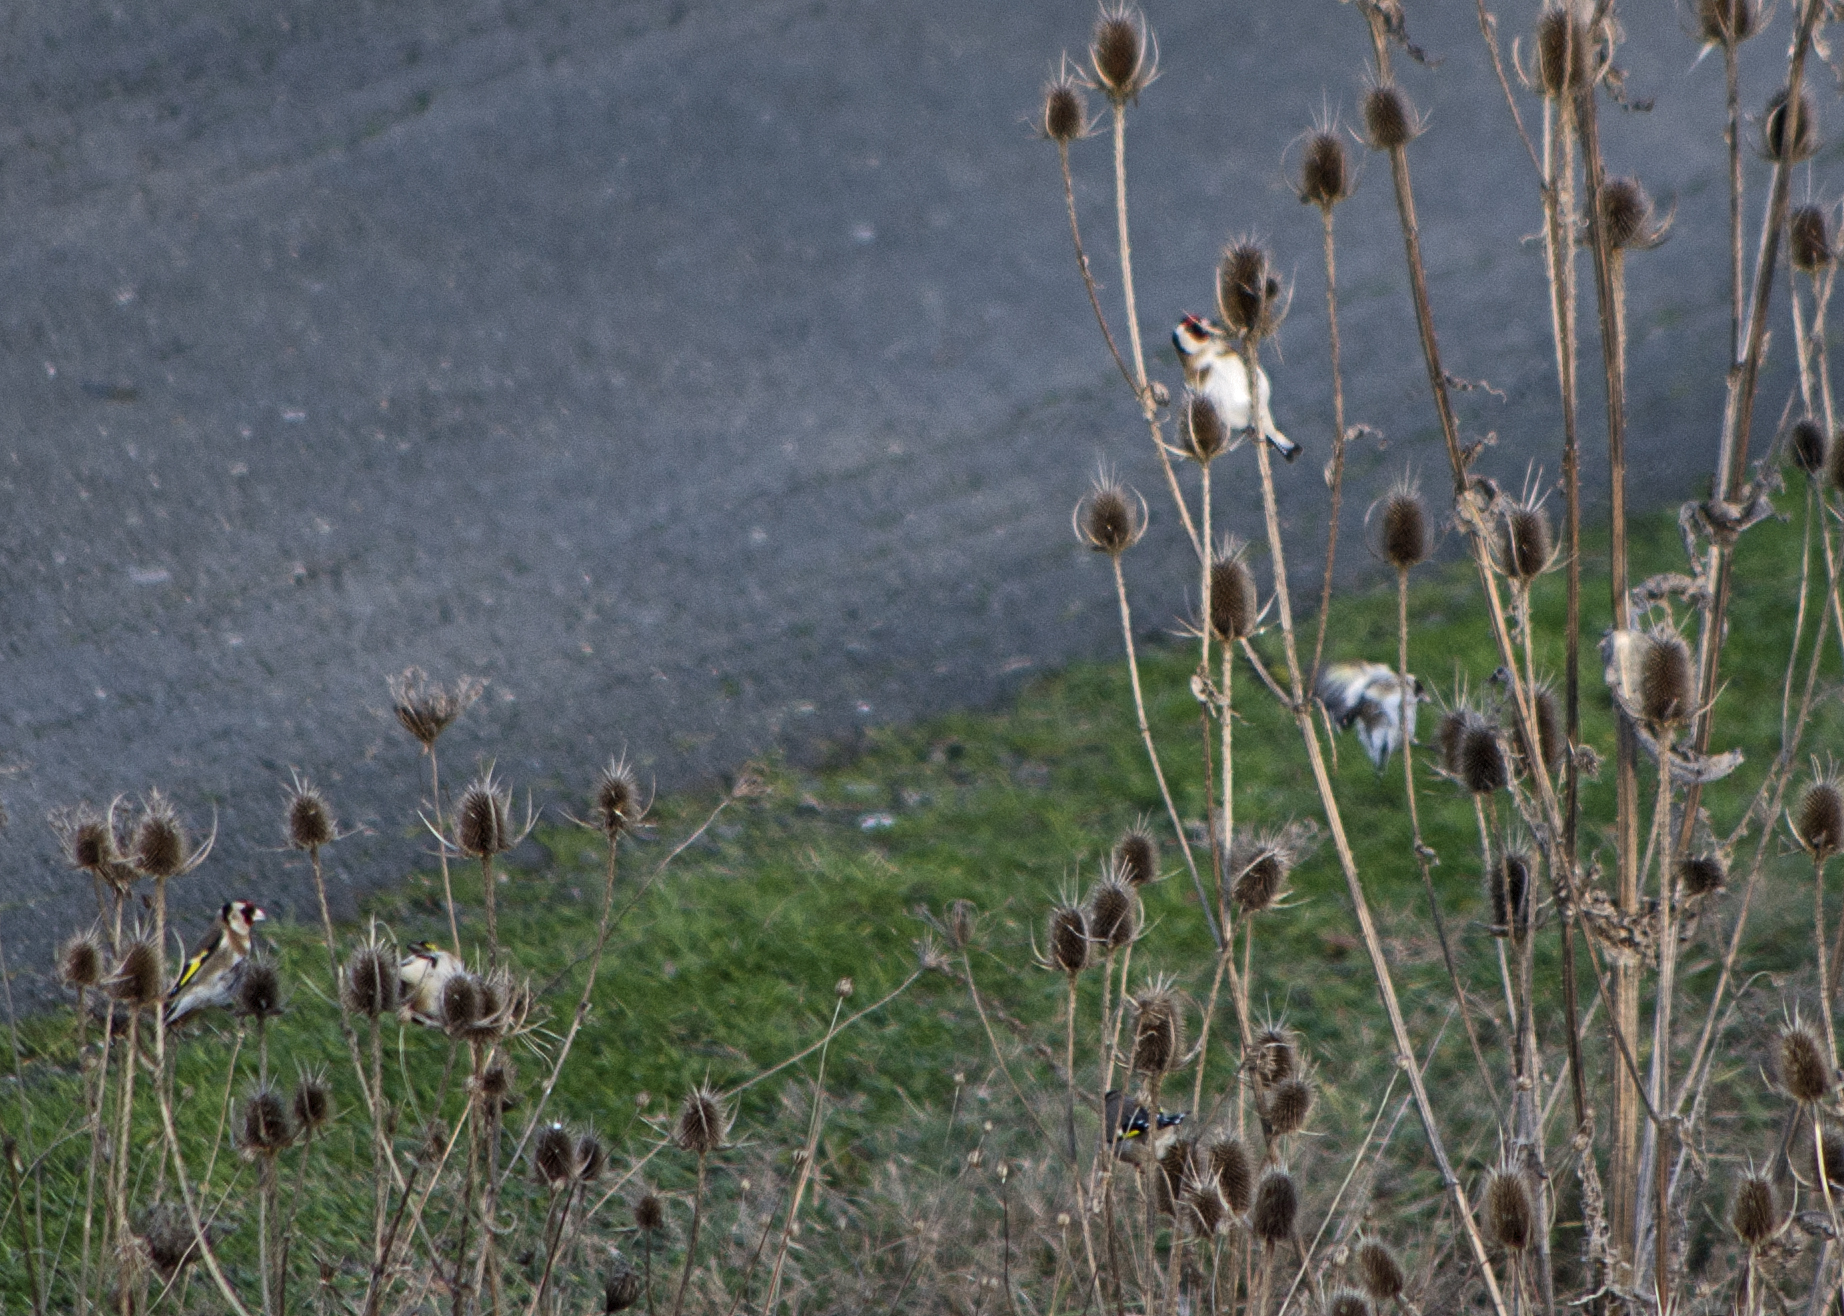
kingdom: Animalia
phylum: Chordata
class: Aves
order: Passeriformes
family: Fringillidae
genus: Carduelis
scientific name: Carduelis carduelis
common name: European goldfinch
